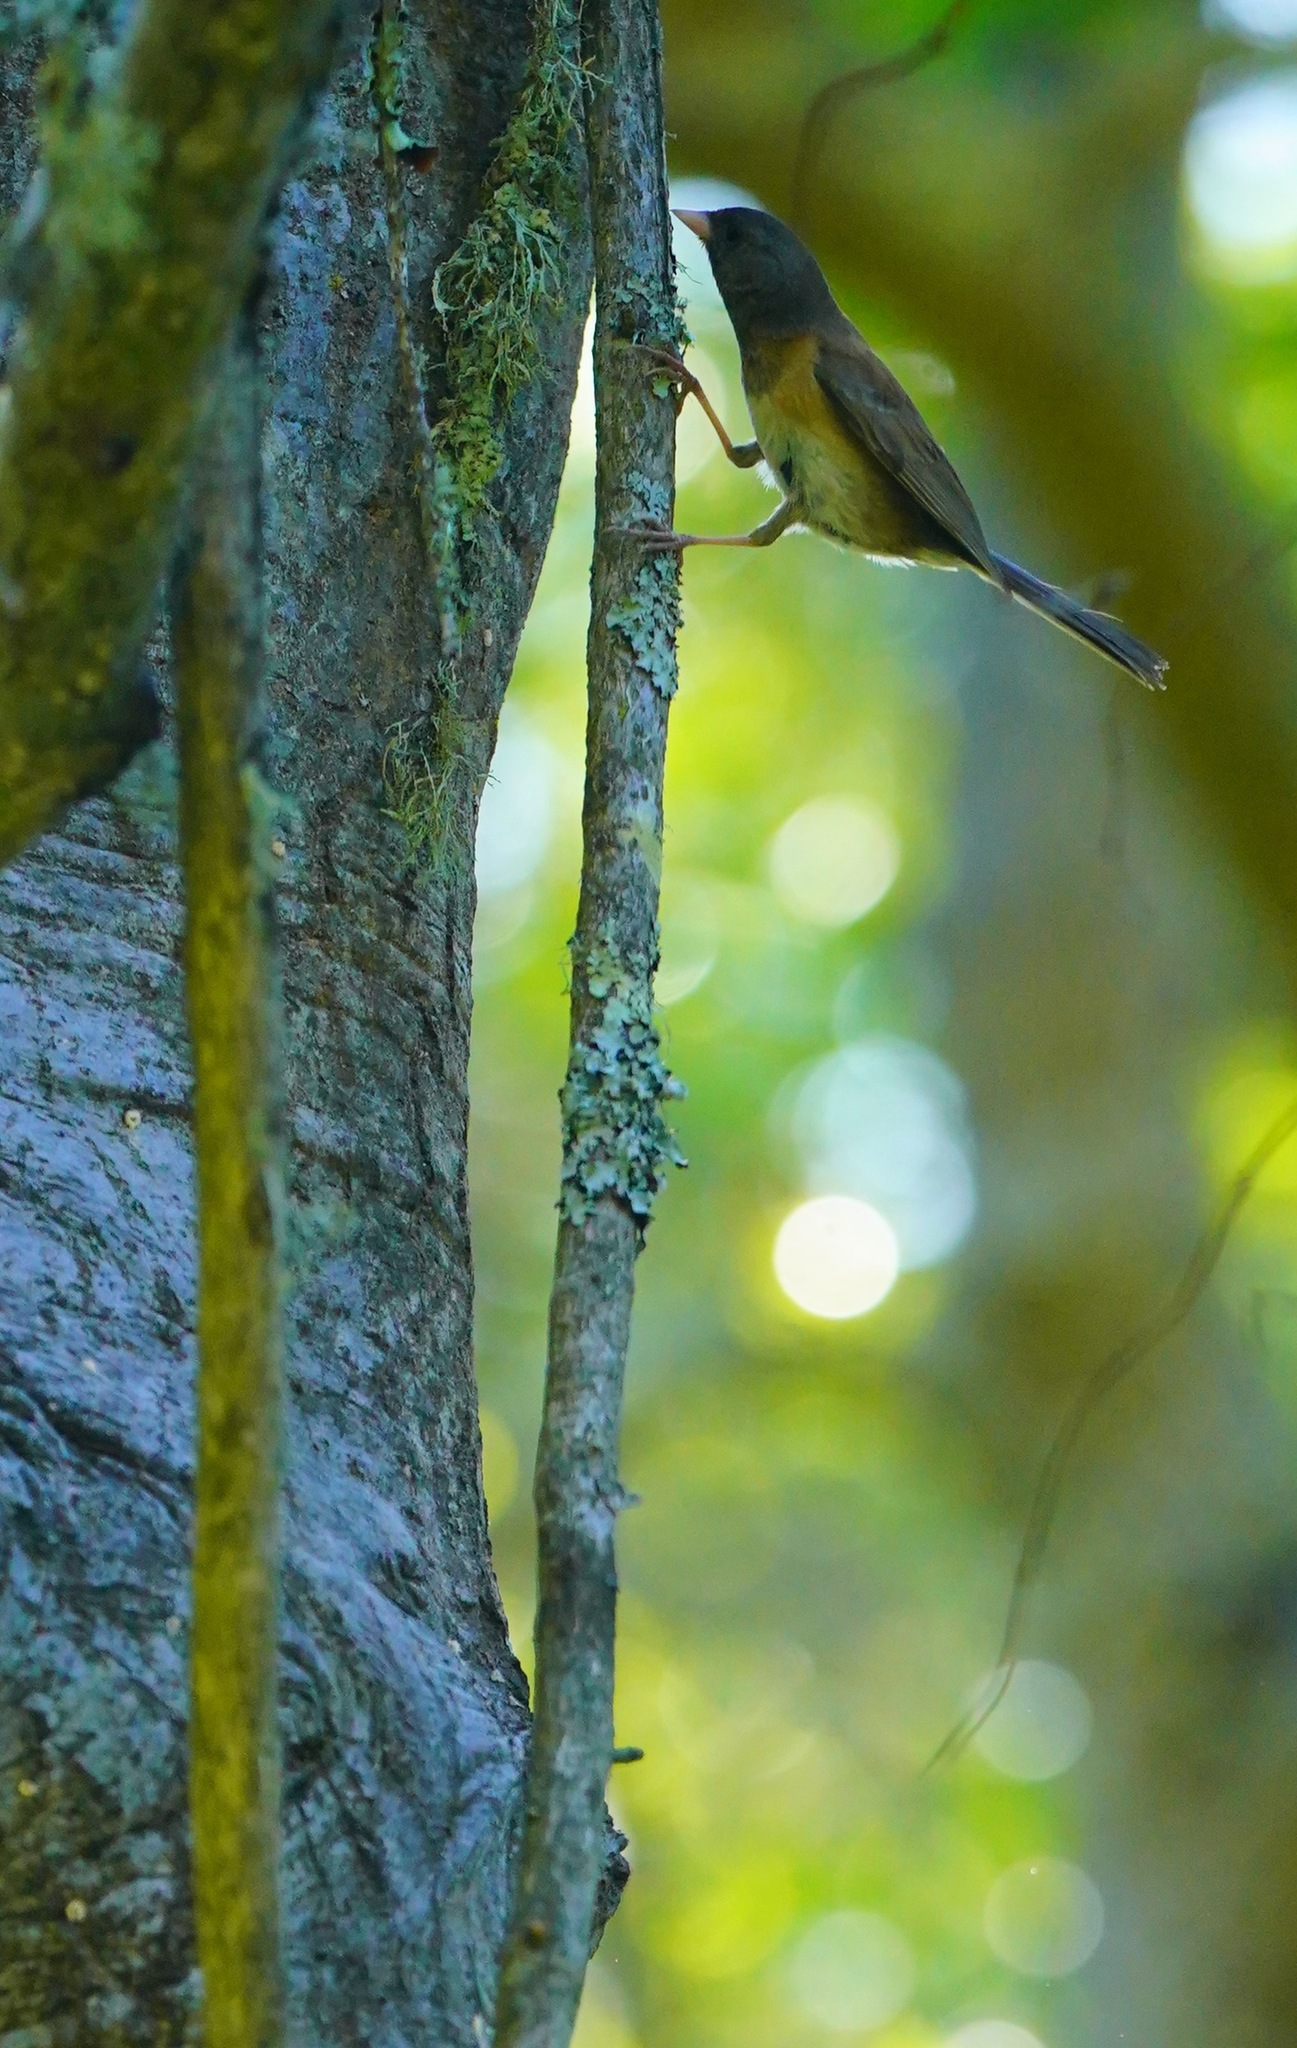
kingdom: Animalia
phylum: Chordata
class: Aves
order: Passeriformes
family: Passerellidae
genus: Junco
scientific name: Junco hyemalis
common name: Dark-eyed junco
